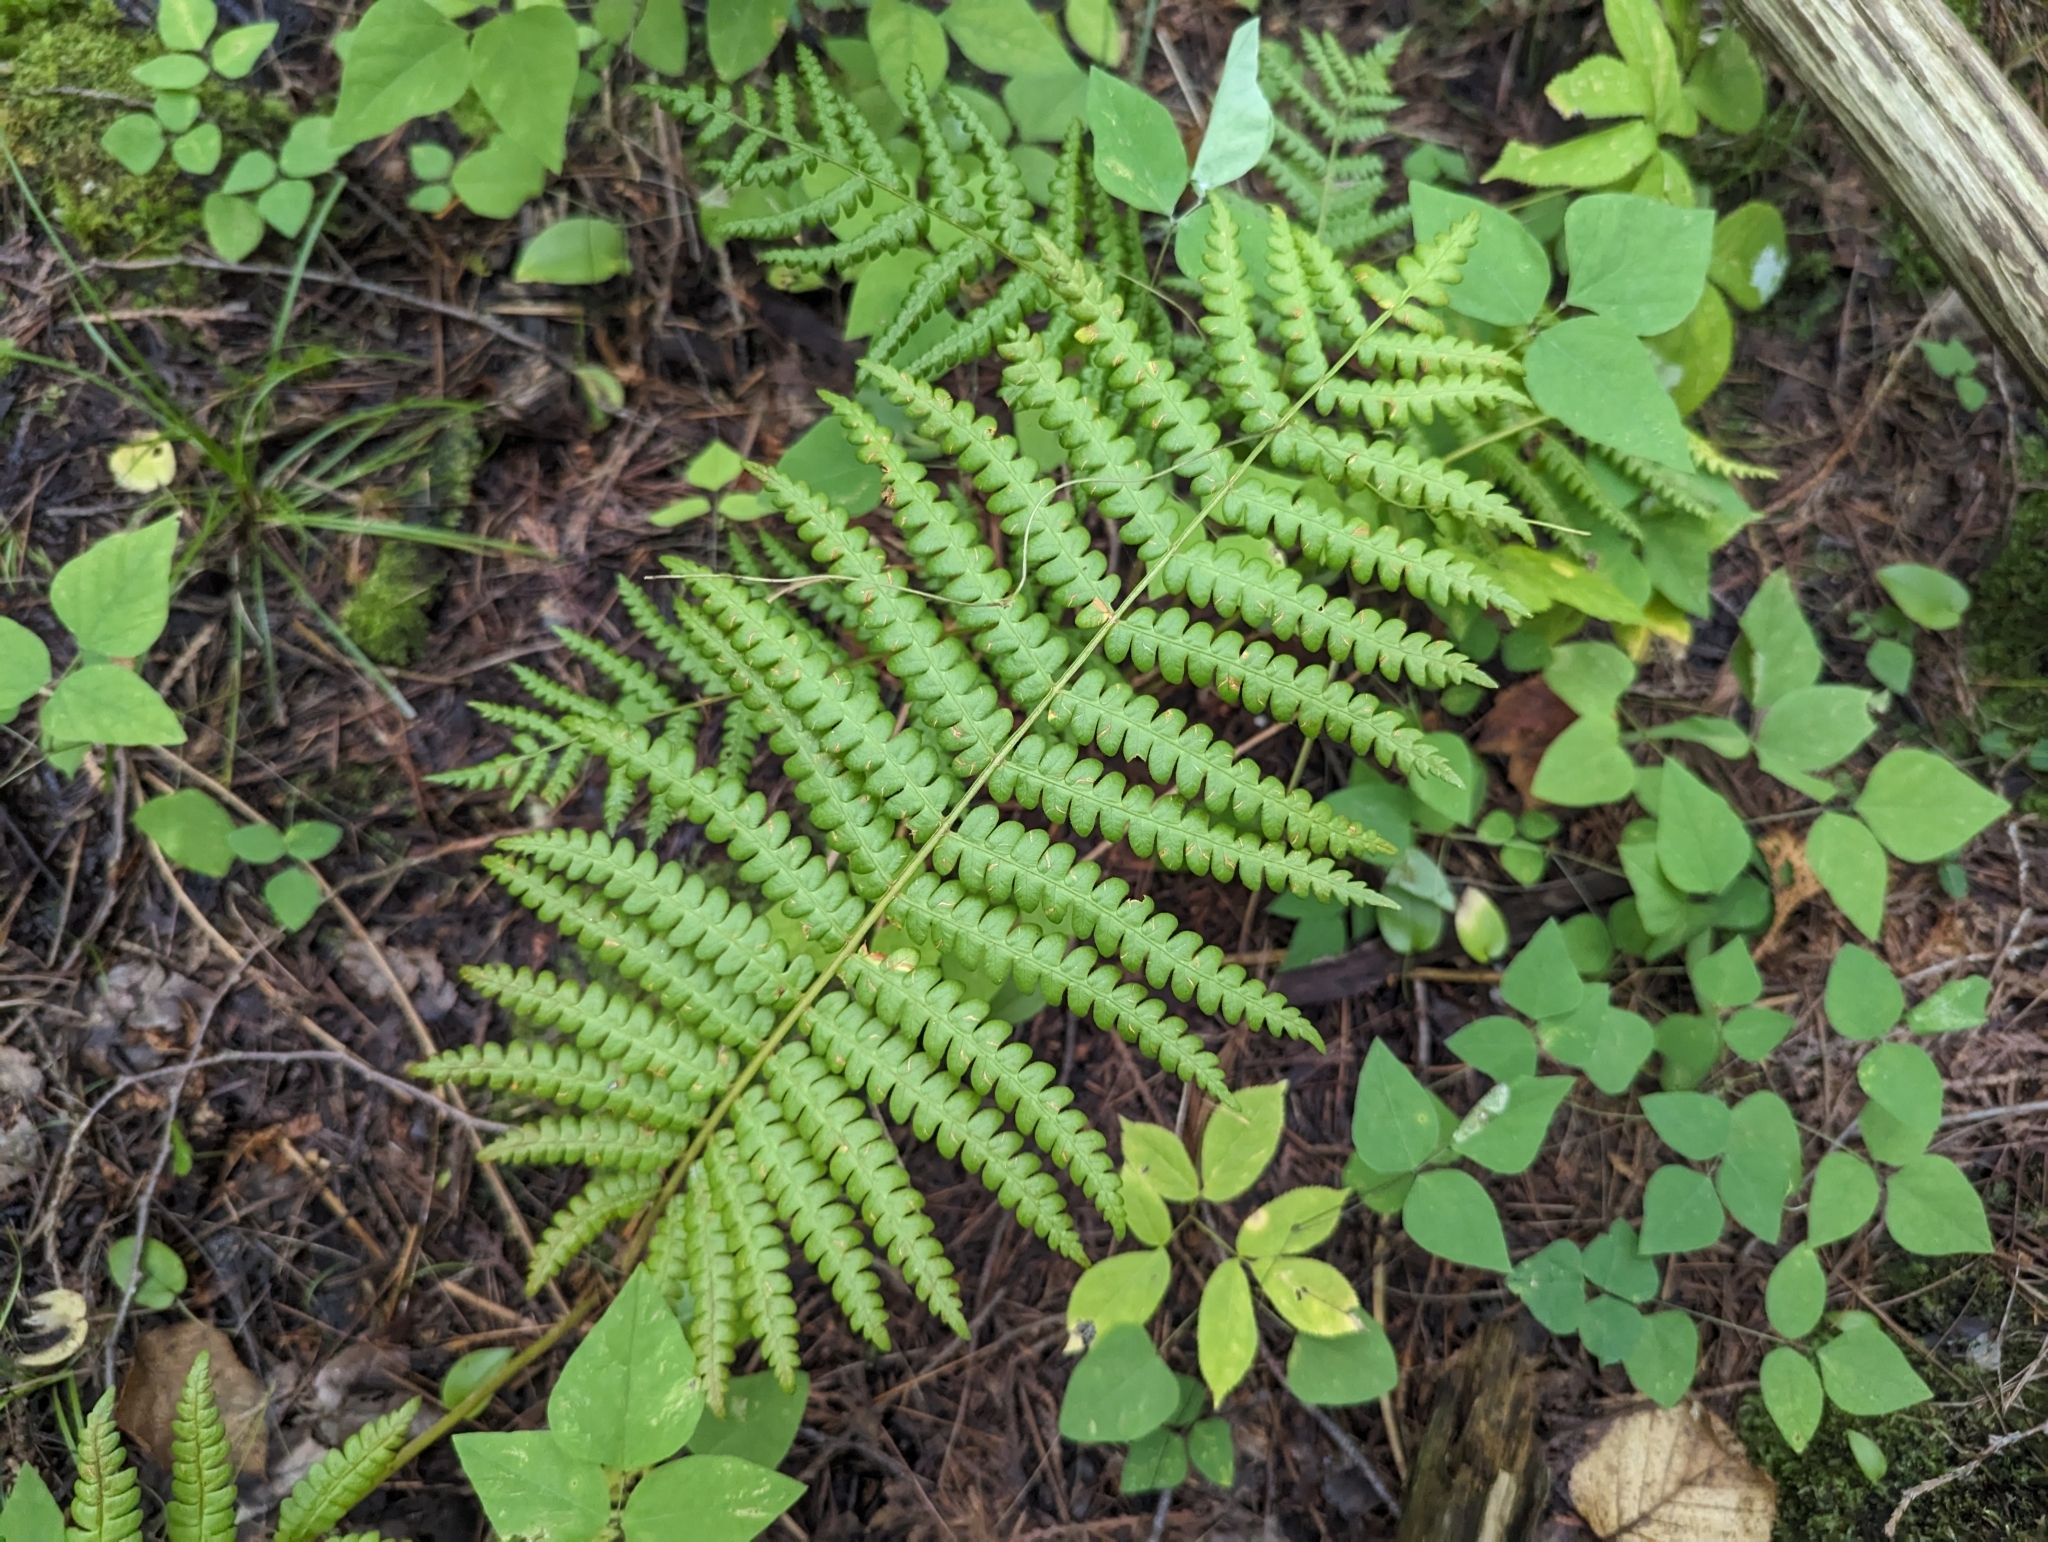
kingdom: Plantae
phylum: Tracheophyta
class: Polypodiopsida
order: Osmundales
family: Osmundaceae
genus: Osmundastrum
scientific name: Osmundastrum cinnamomeum
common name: Cinnamon fern
